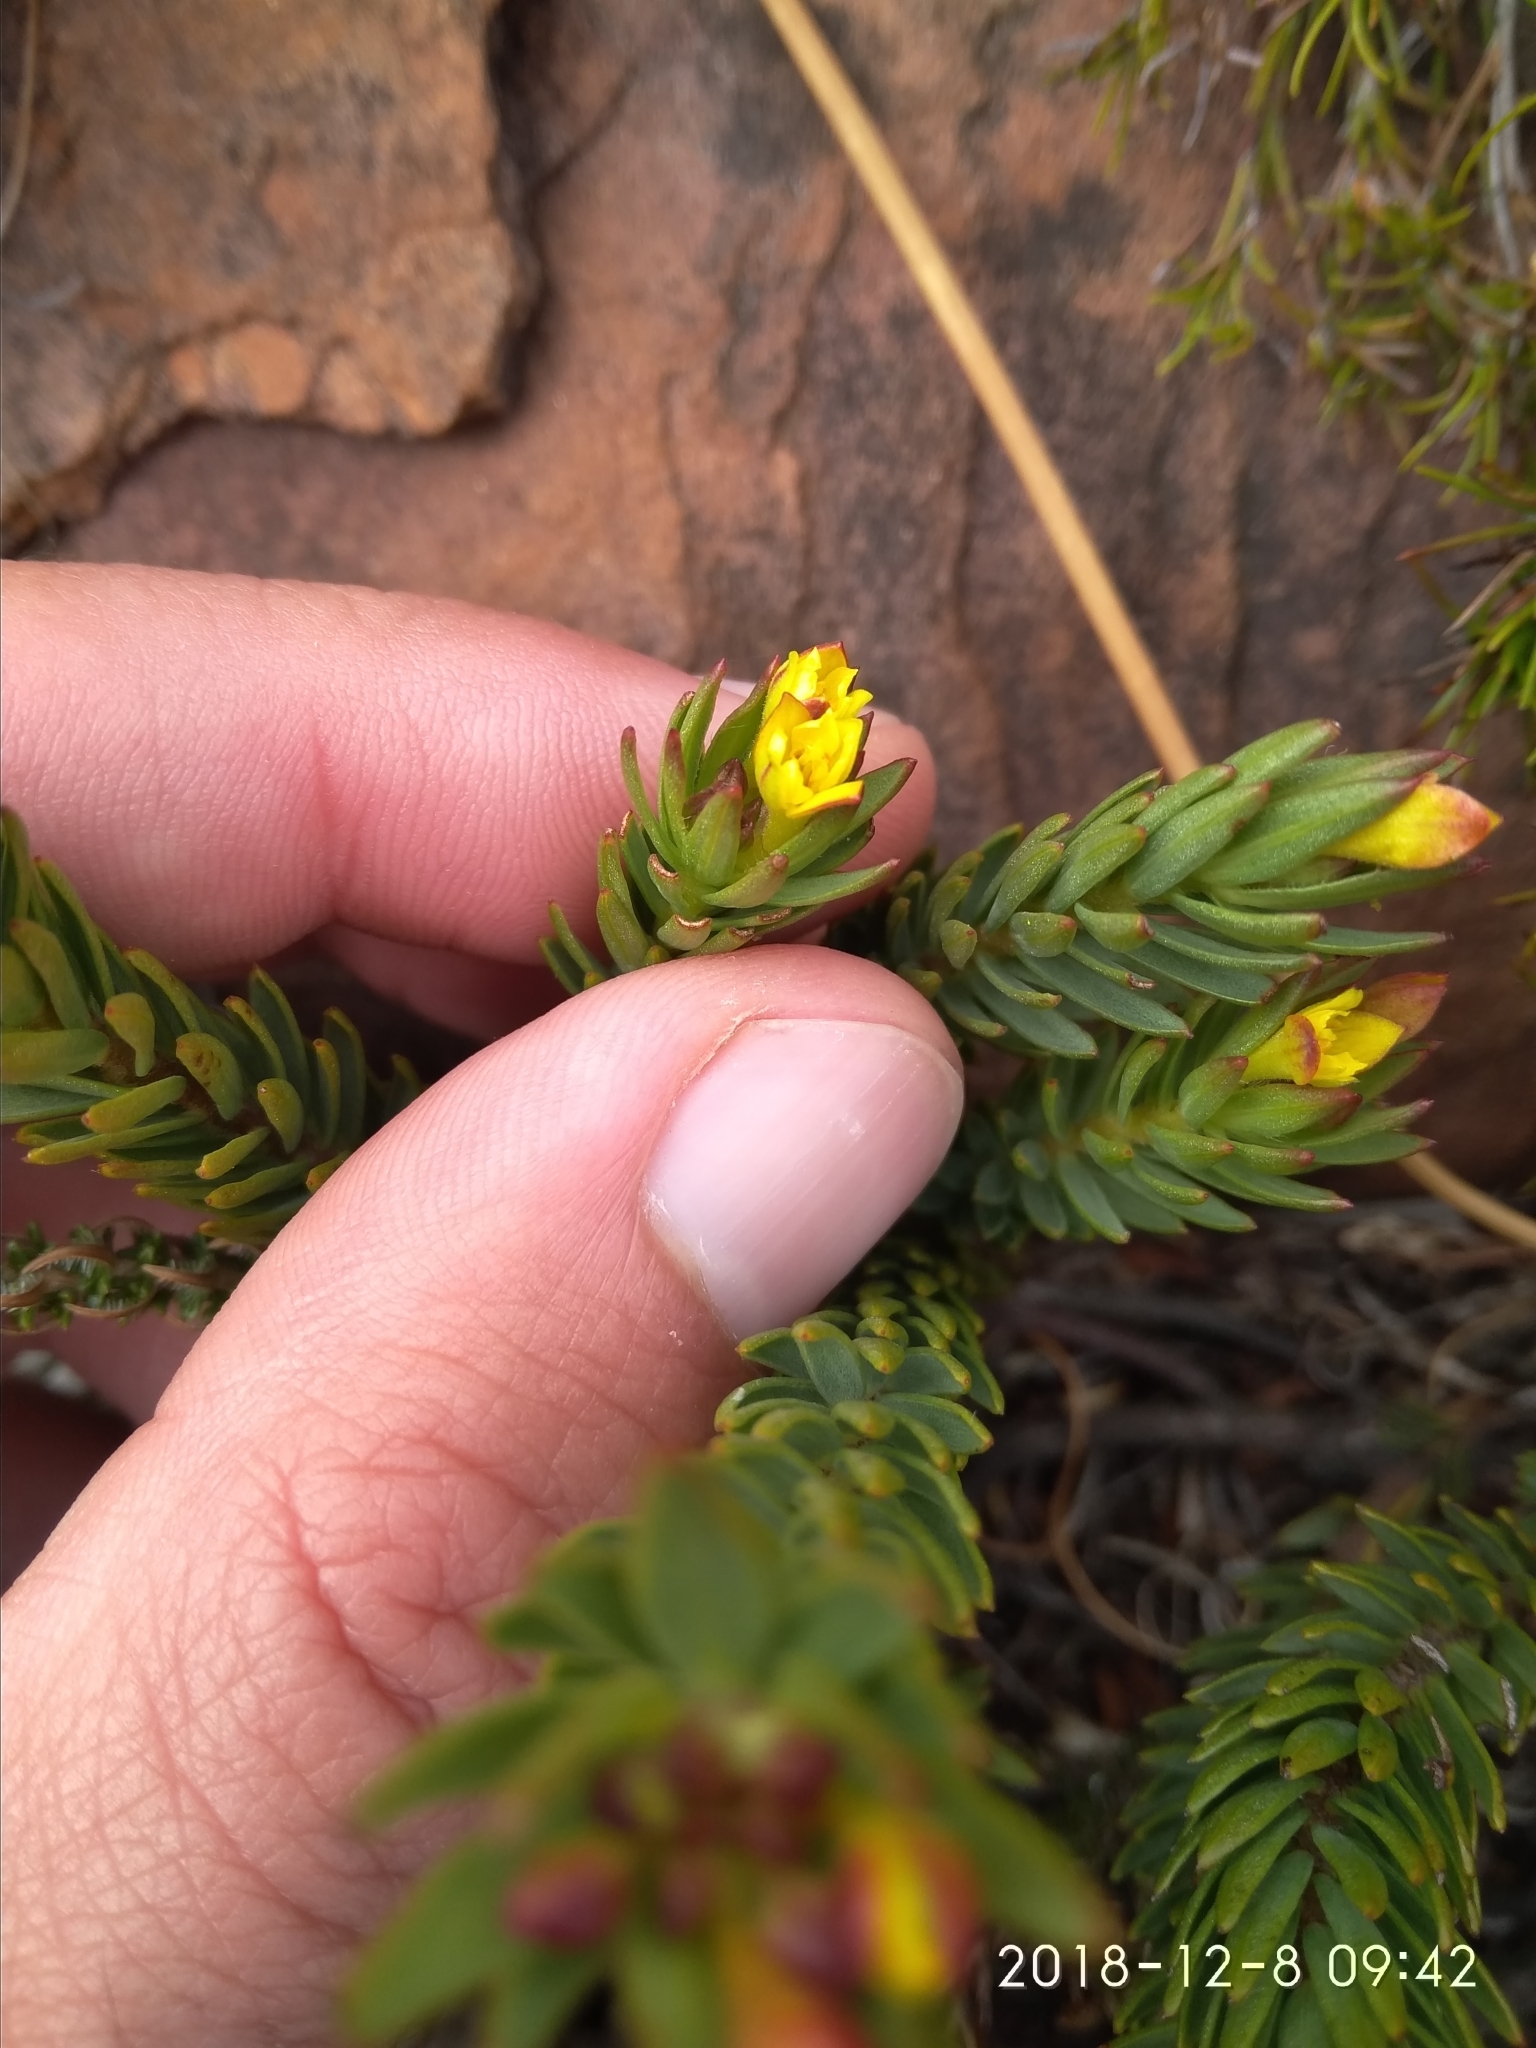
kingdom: Plantae
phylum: Tracheophyta
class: Magnoliopsida
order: Malvales
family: Thymelaeaceae
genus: Gnidia
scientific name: Gnidia juniperifolia
